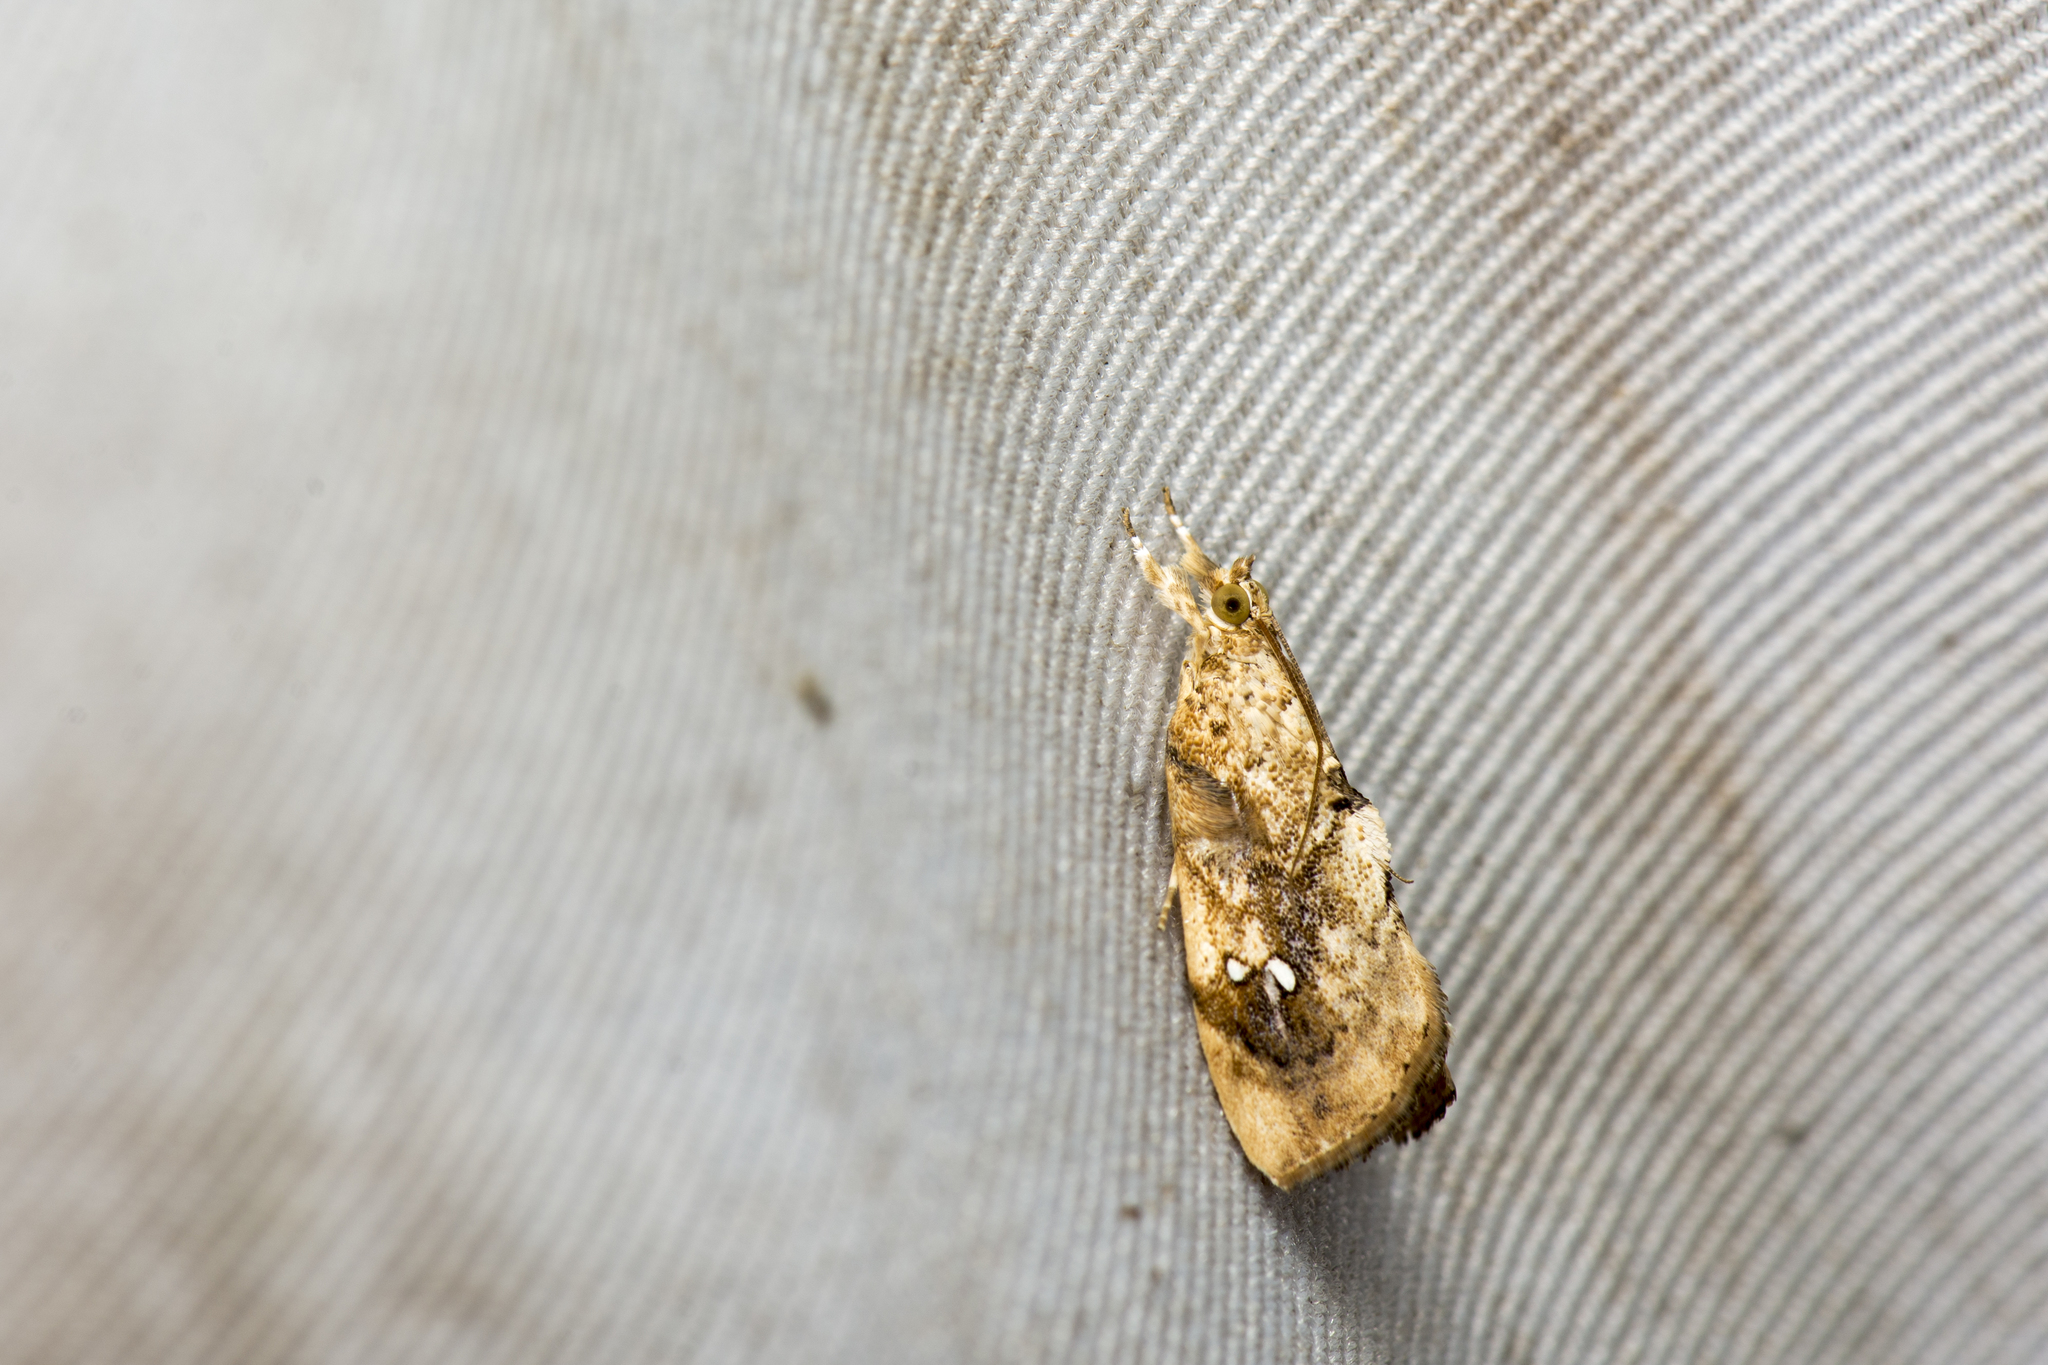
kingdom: Animalia
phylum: Arthropoda
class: Insecta
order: Lepidoptera
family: Crambidae
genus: Crocidolomia
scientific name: Crocidolomia pavonana
